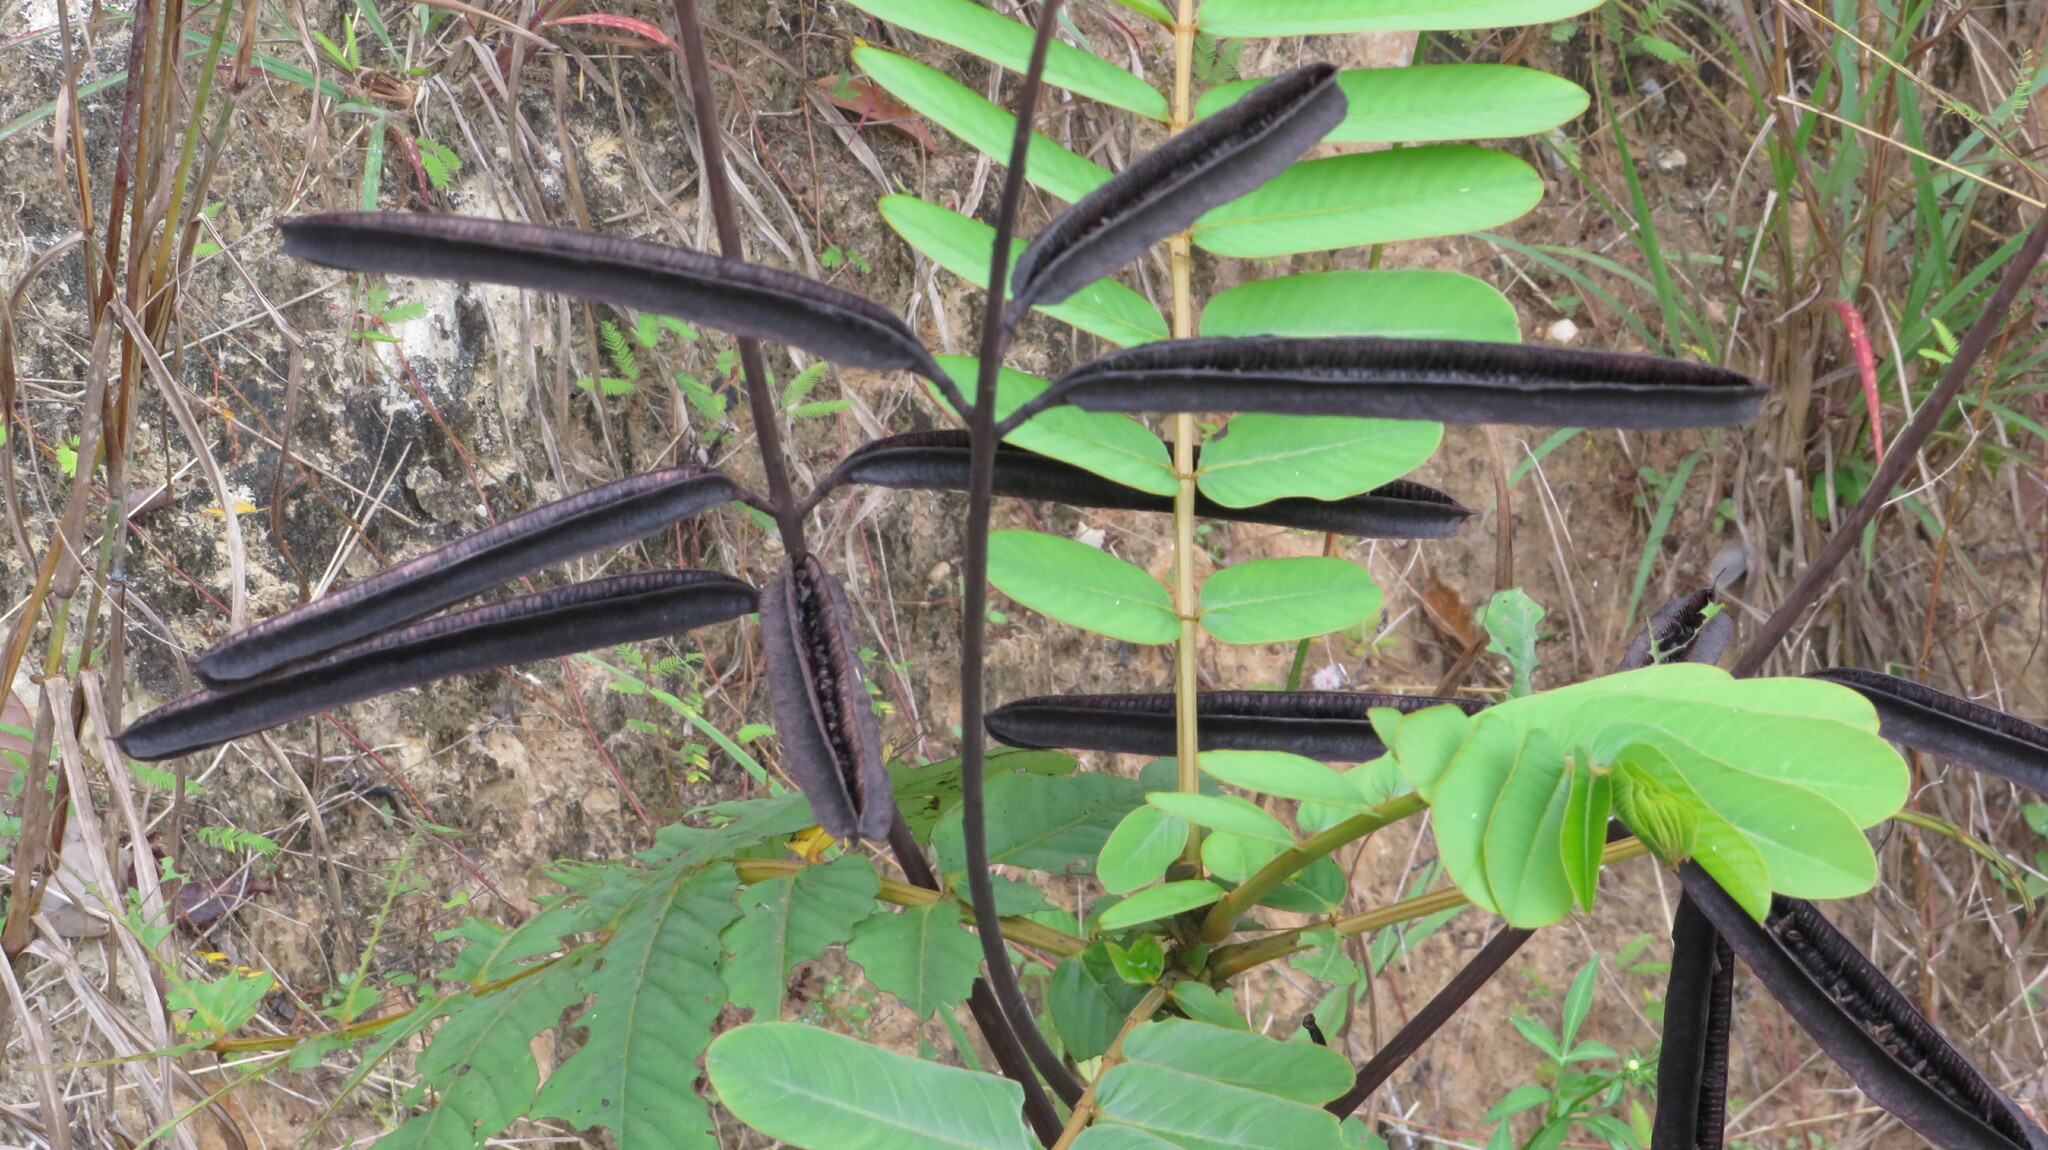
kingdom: Plantae
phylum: Tracheophyta
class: Magnoliopsida
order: Fabales
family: Fabaceae
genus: Senna
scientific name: Senna alata
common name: Emperor's candlesticks
